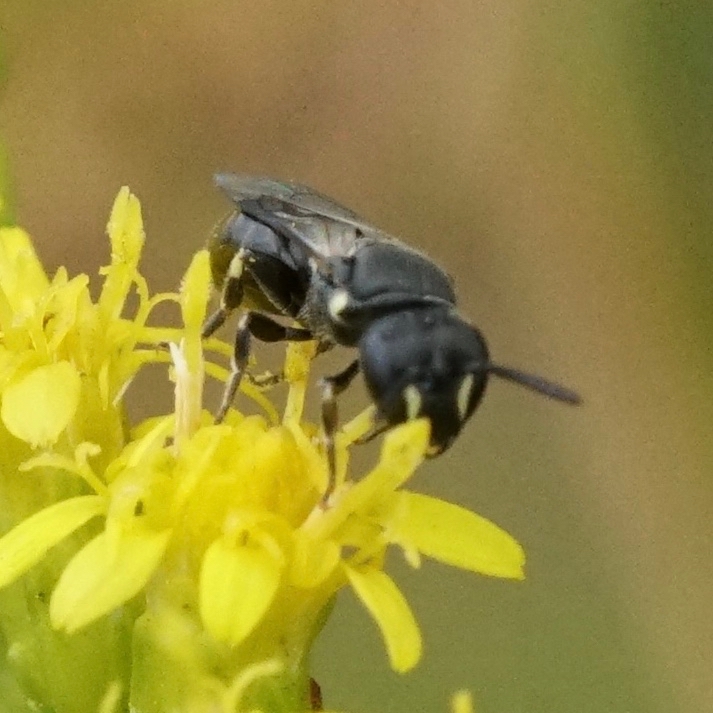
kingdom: Animalia
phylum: Arthropoda
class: Insecta
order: Hymenoptera
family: Colletidae
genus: Hylaeus
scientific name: Hylaeus mesillae
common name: Mesilla masked bee
